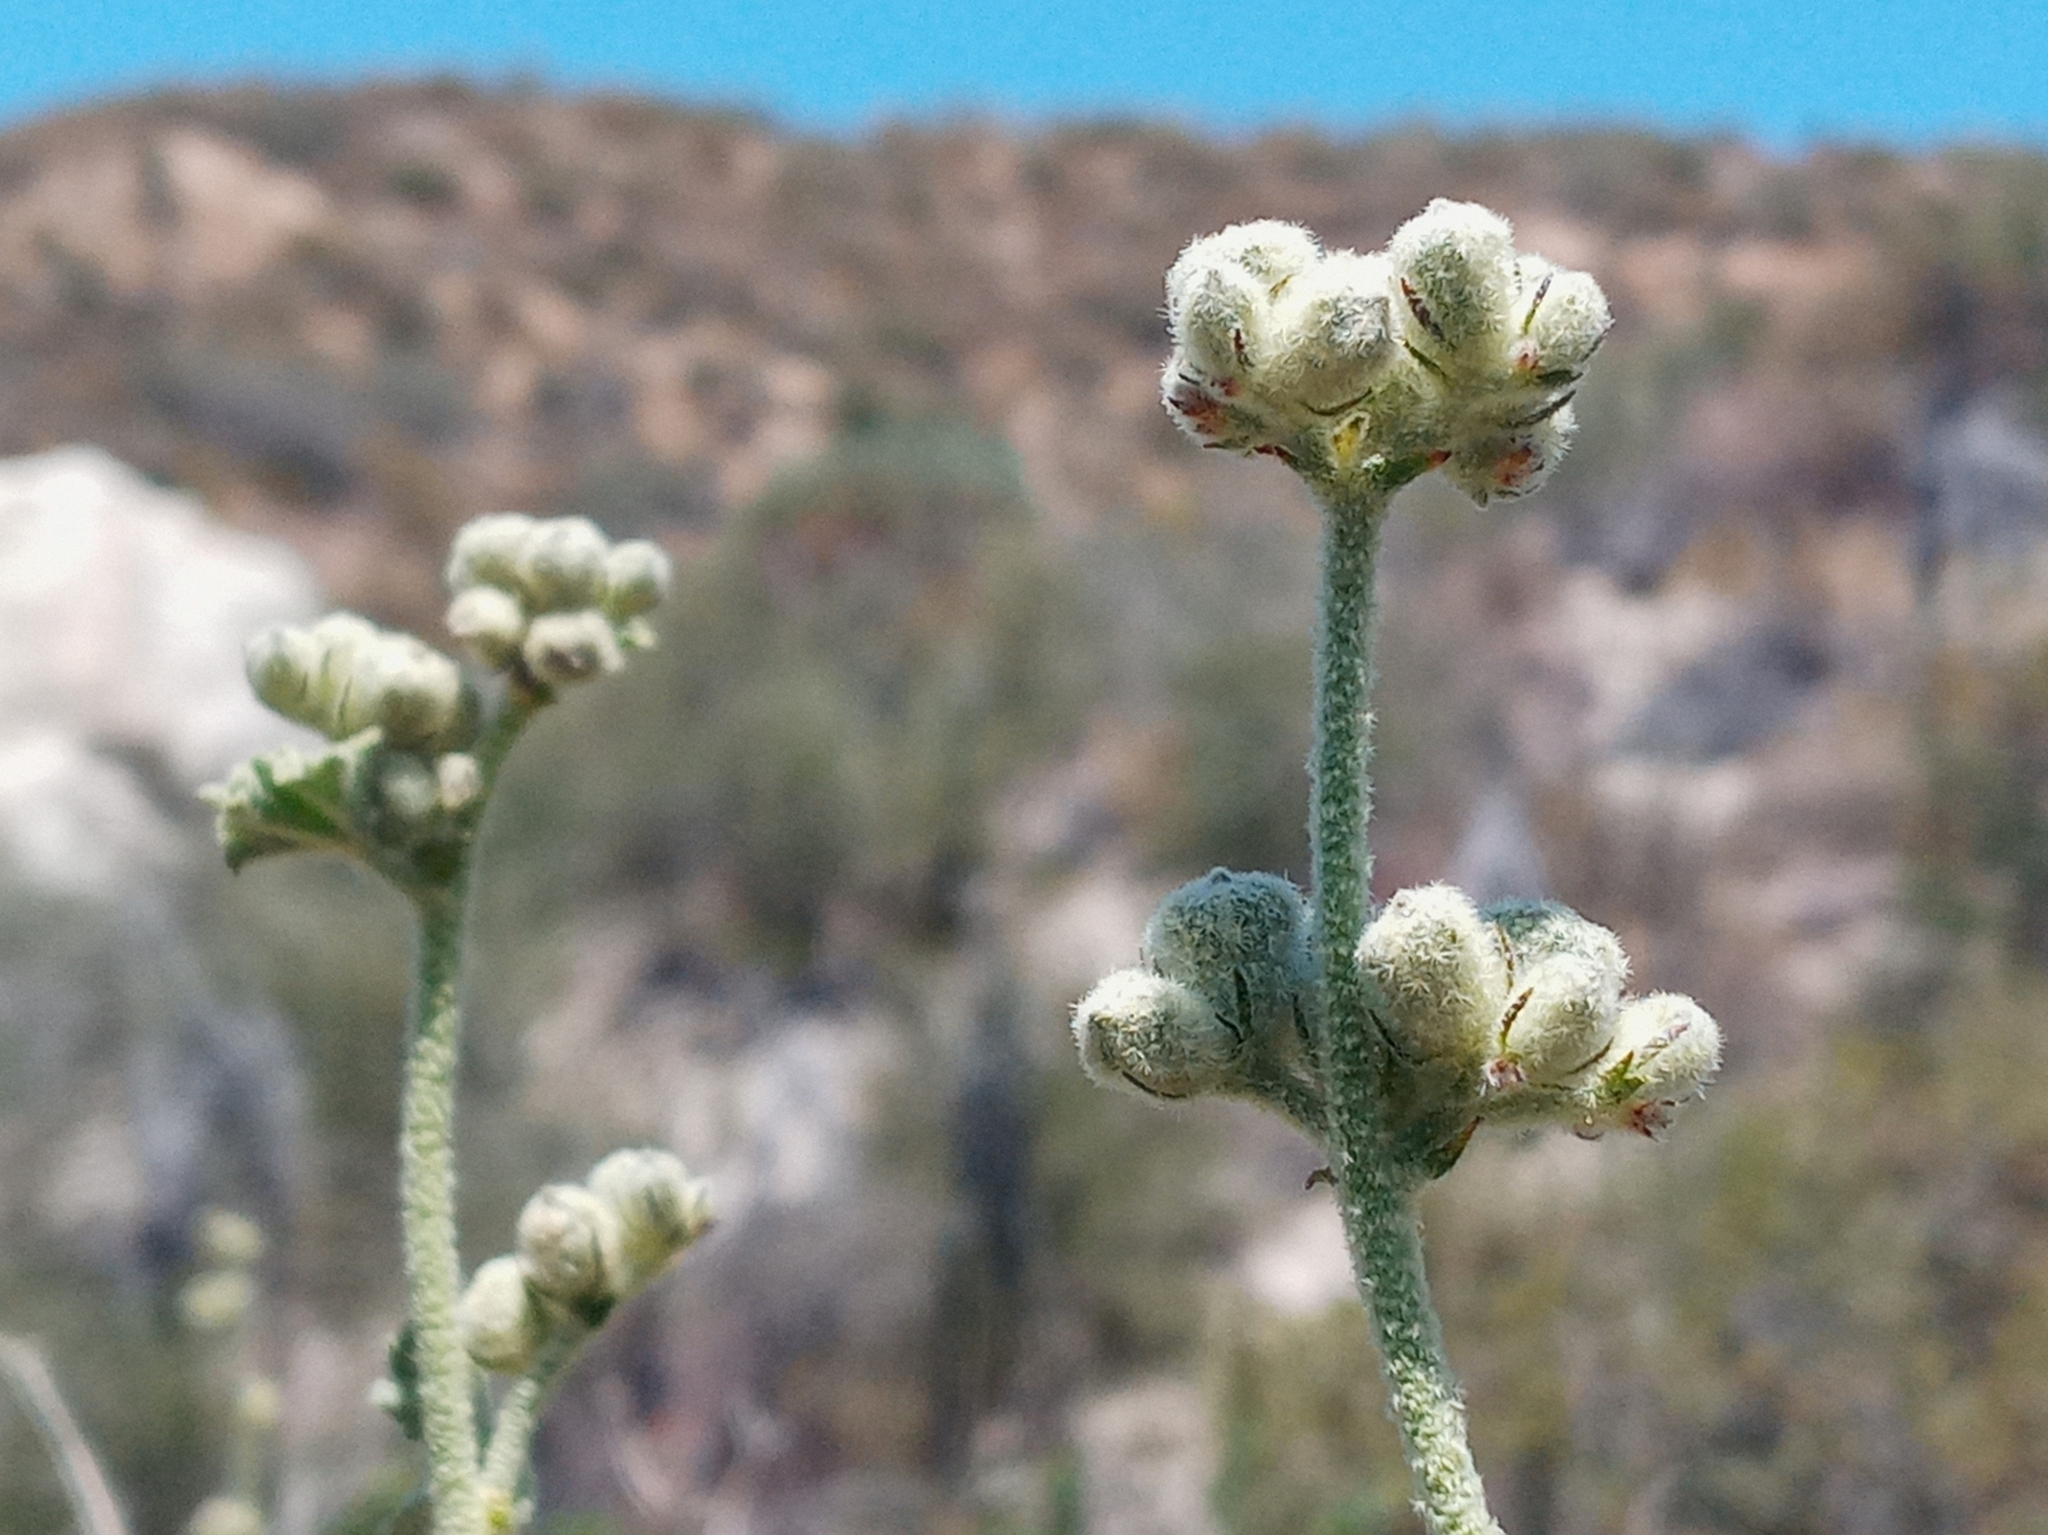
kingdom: Plantae
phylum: Tracheophyta
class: Magnoliopsida
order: Malvales
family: Malvaceae
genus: Malacothamnus
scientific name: Malacothamnus fremontii
